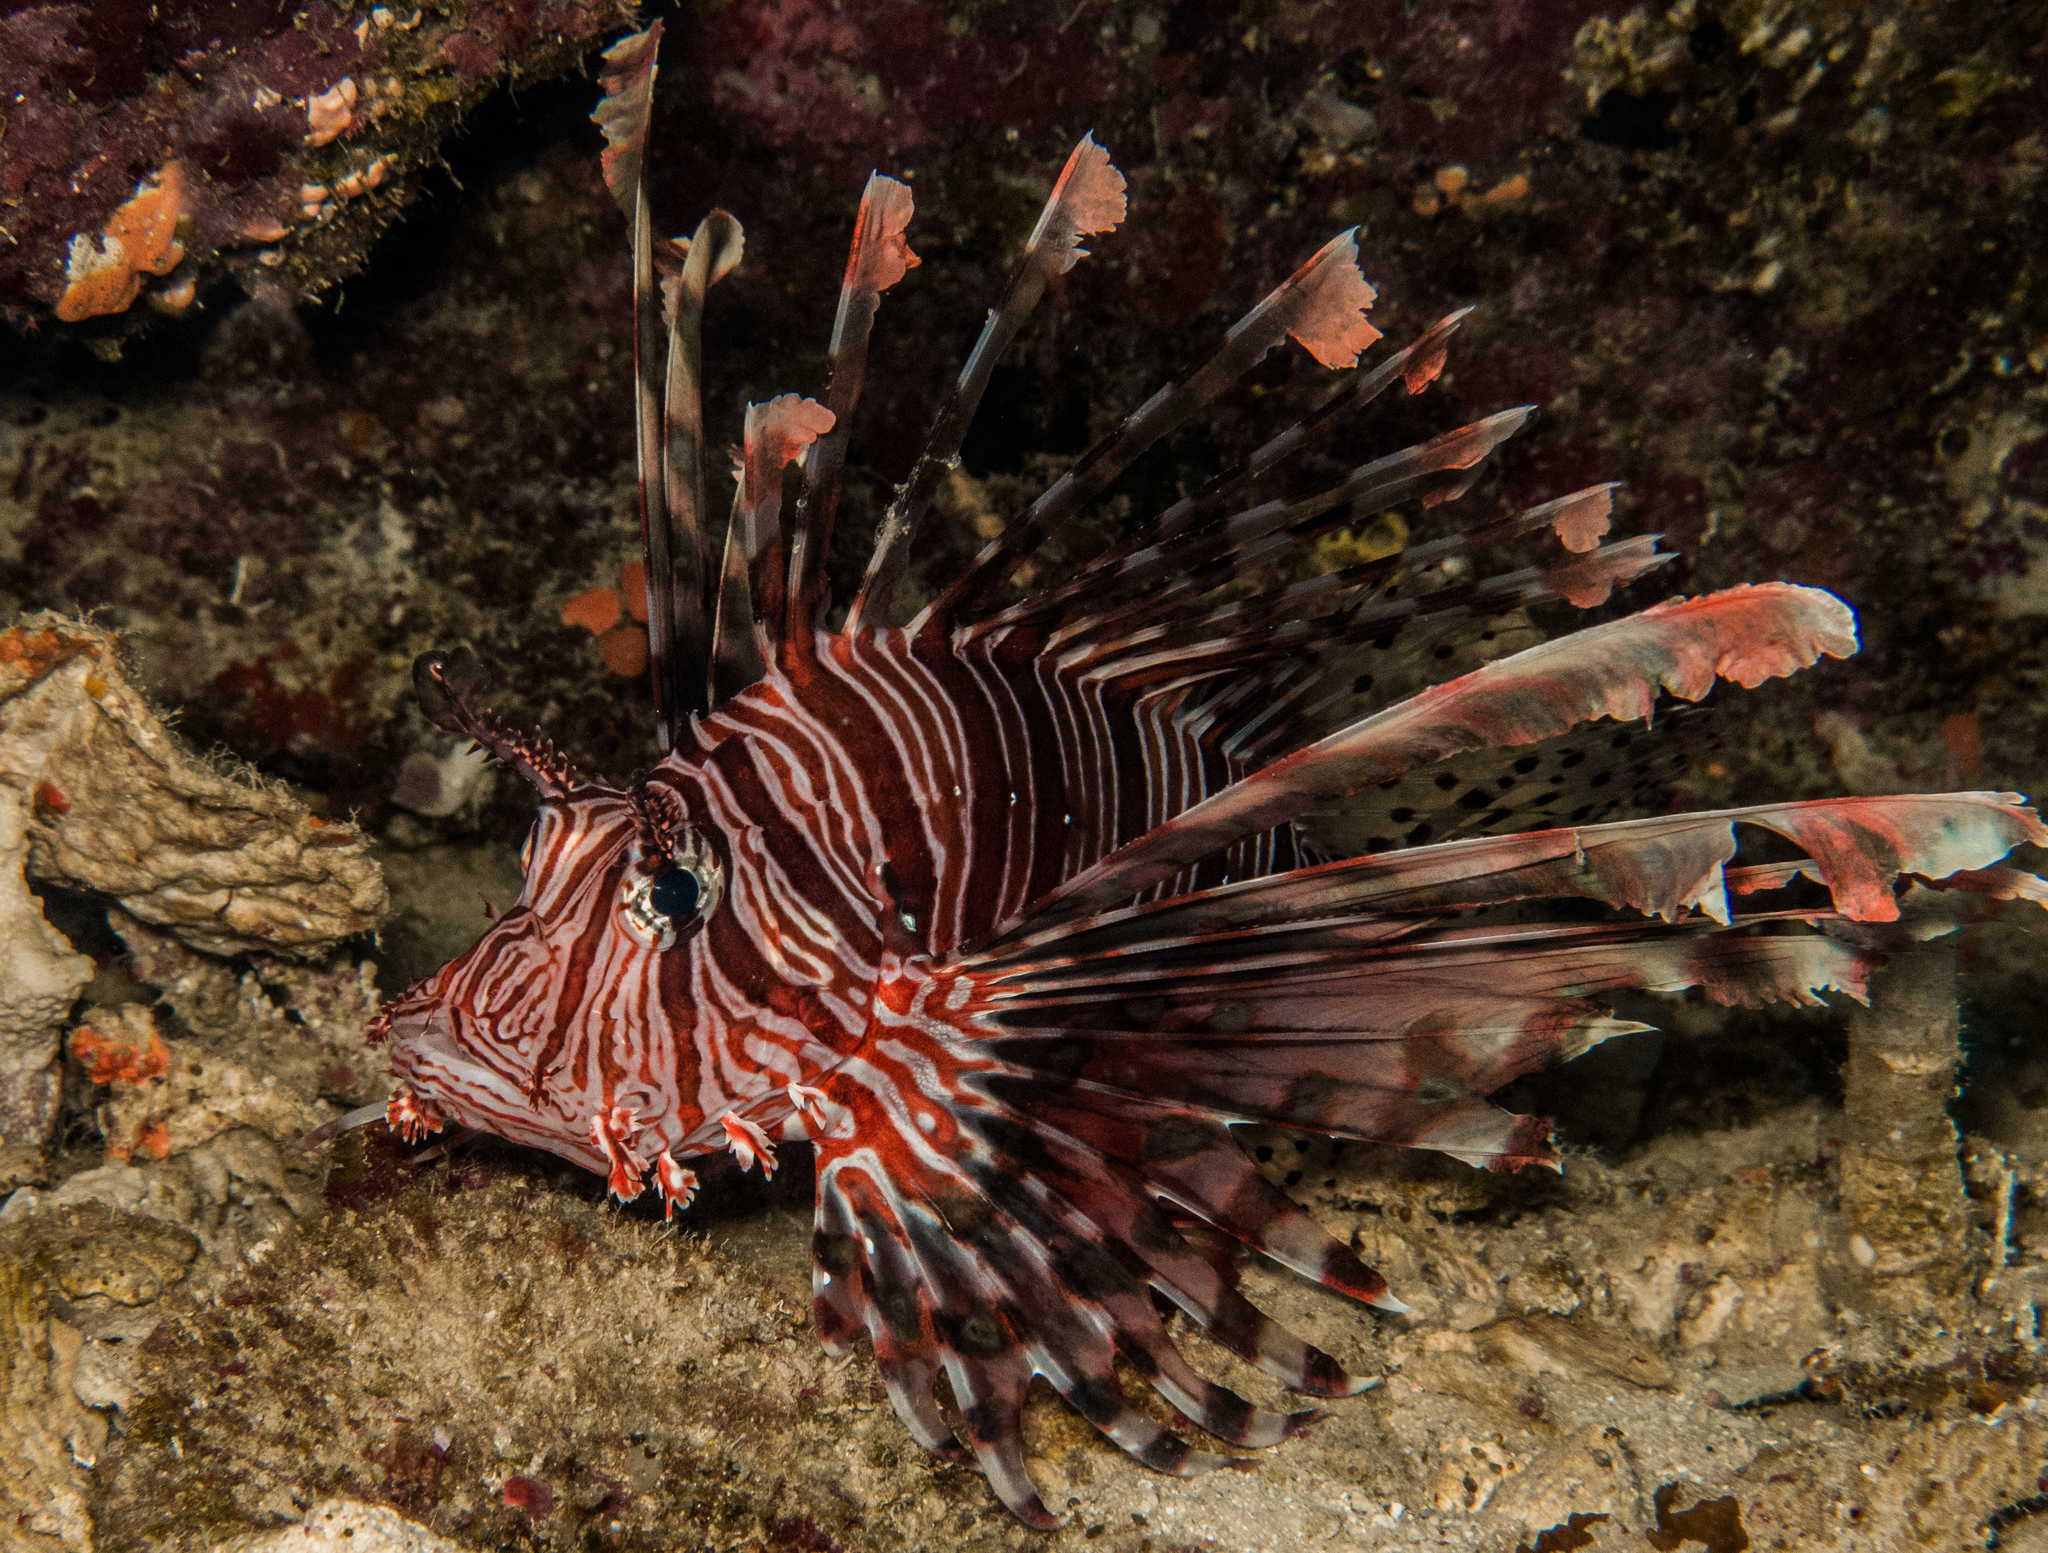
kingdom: Animalia
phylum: Chordata
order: Scorpaeniformes
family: Scorpaenidae
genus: Pterois
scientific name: Pterois volitans
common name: Lionfish
